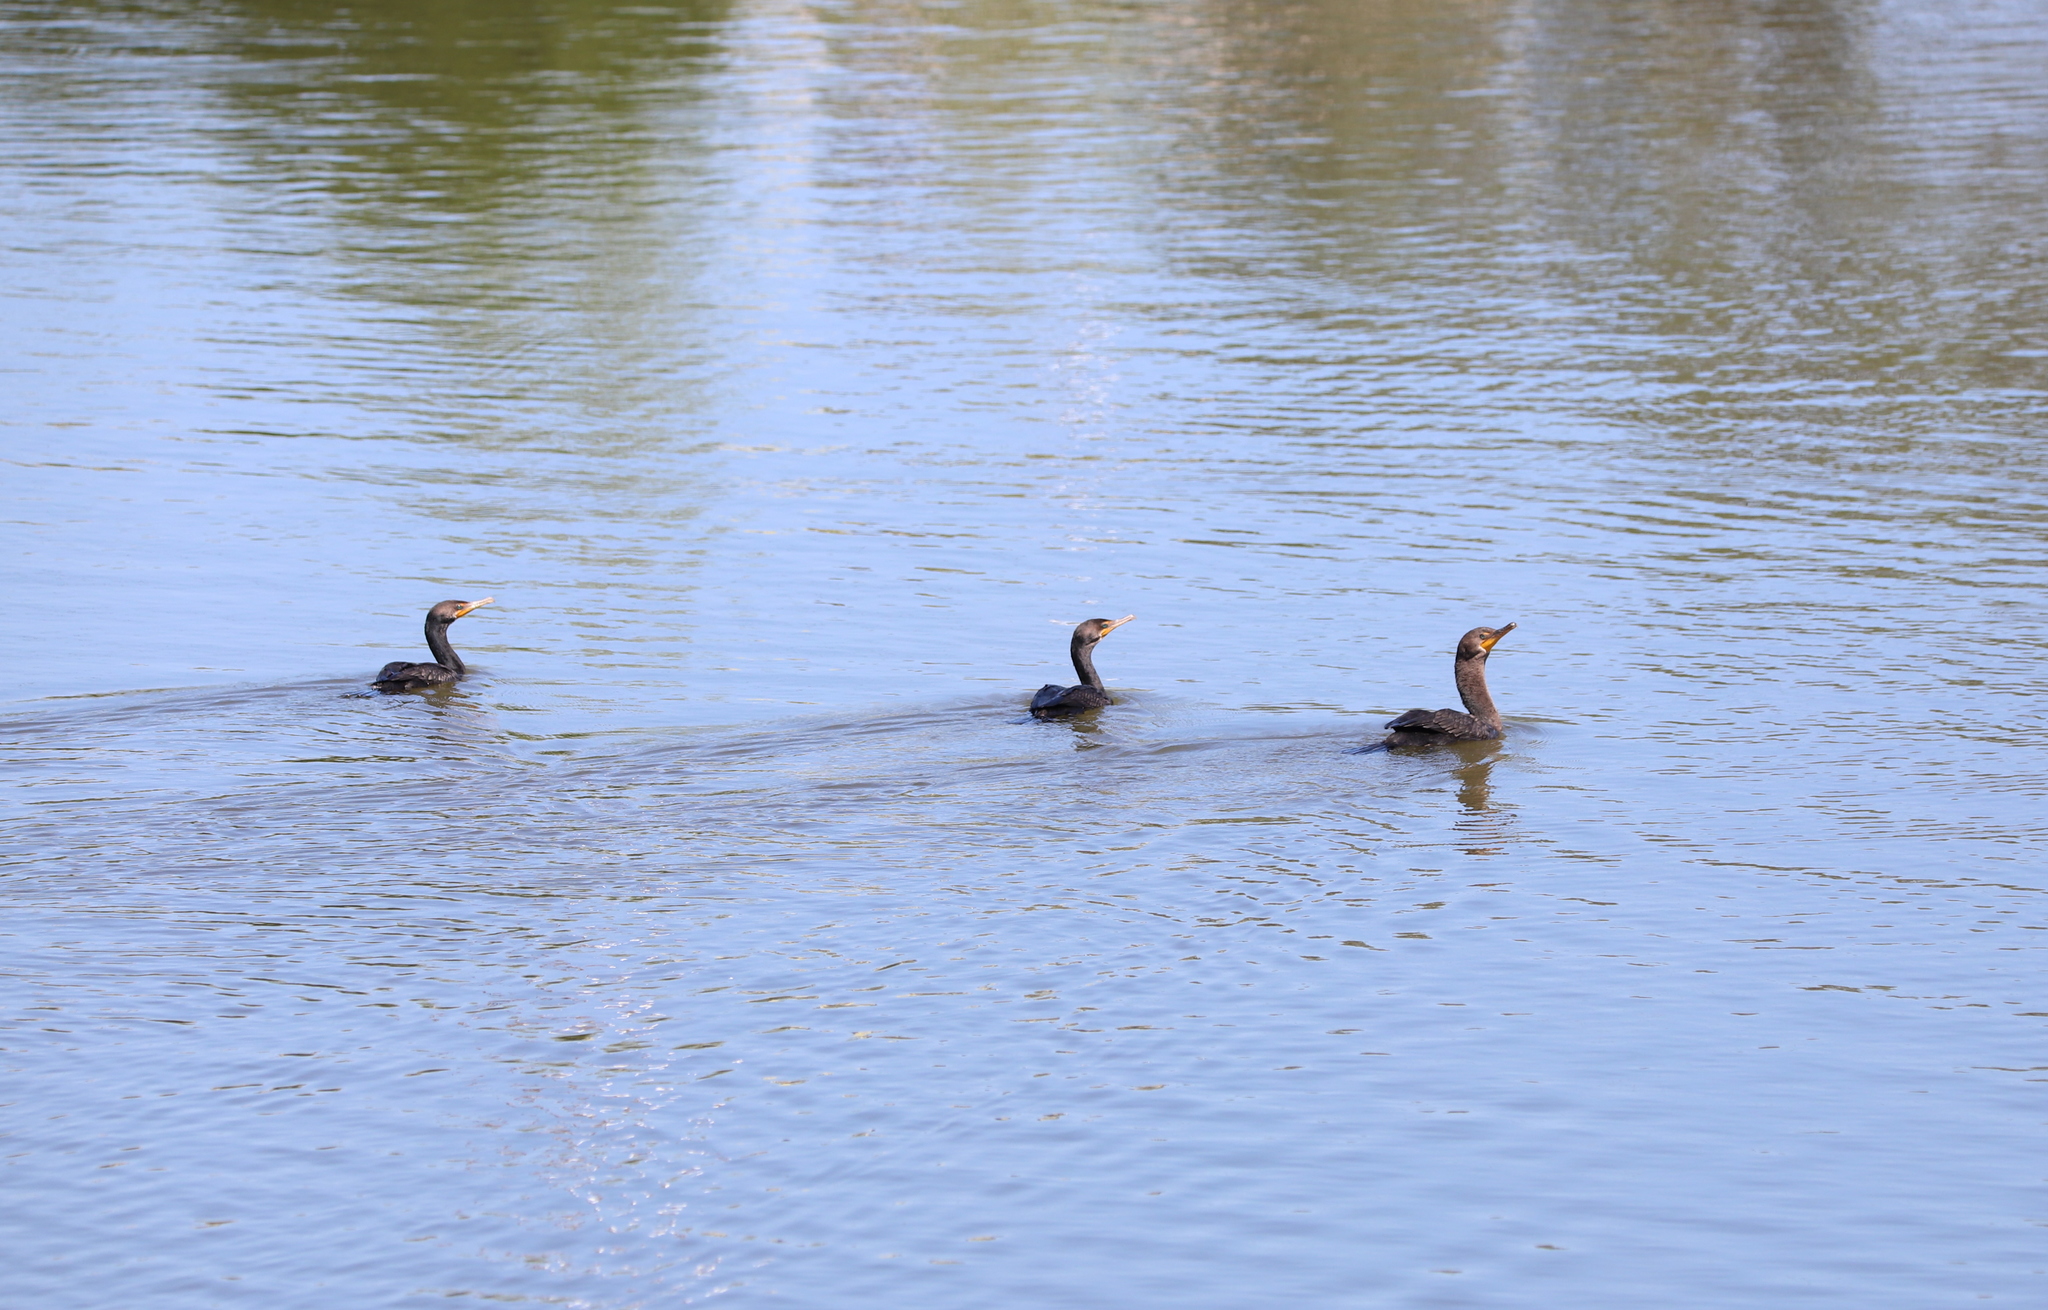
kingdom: Animalia
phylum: Chordata
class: Aves
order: Suliformes
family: Phalacrocoracidae
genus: Phalacrocorax
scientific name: Phalacrocorax auritus
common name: Double-crested cormorant
